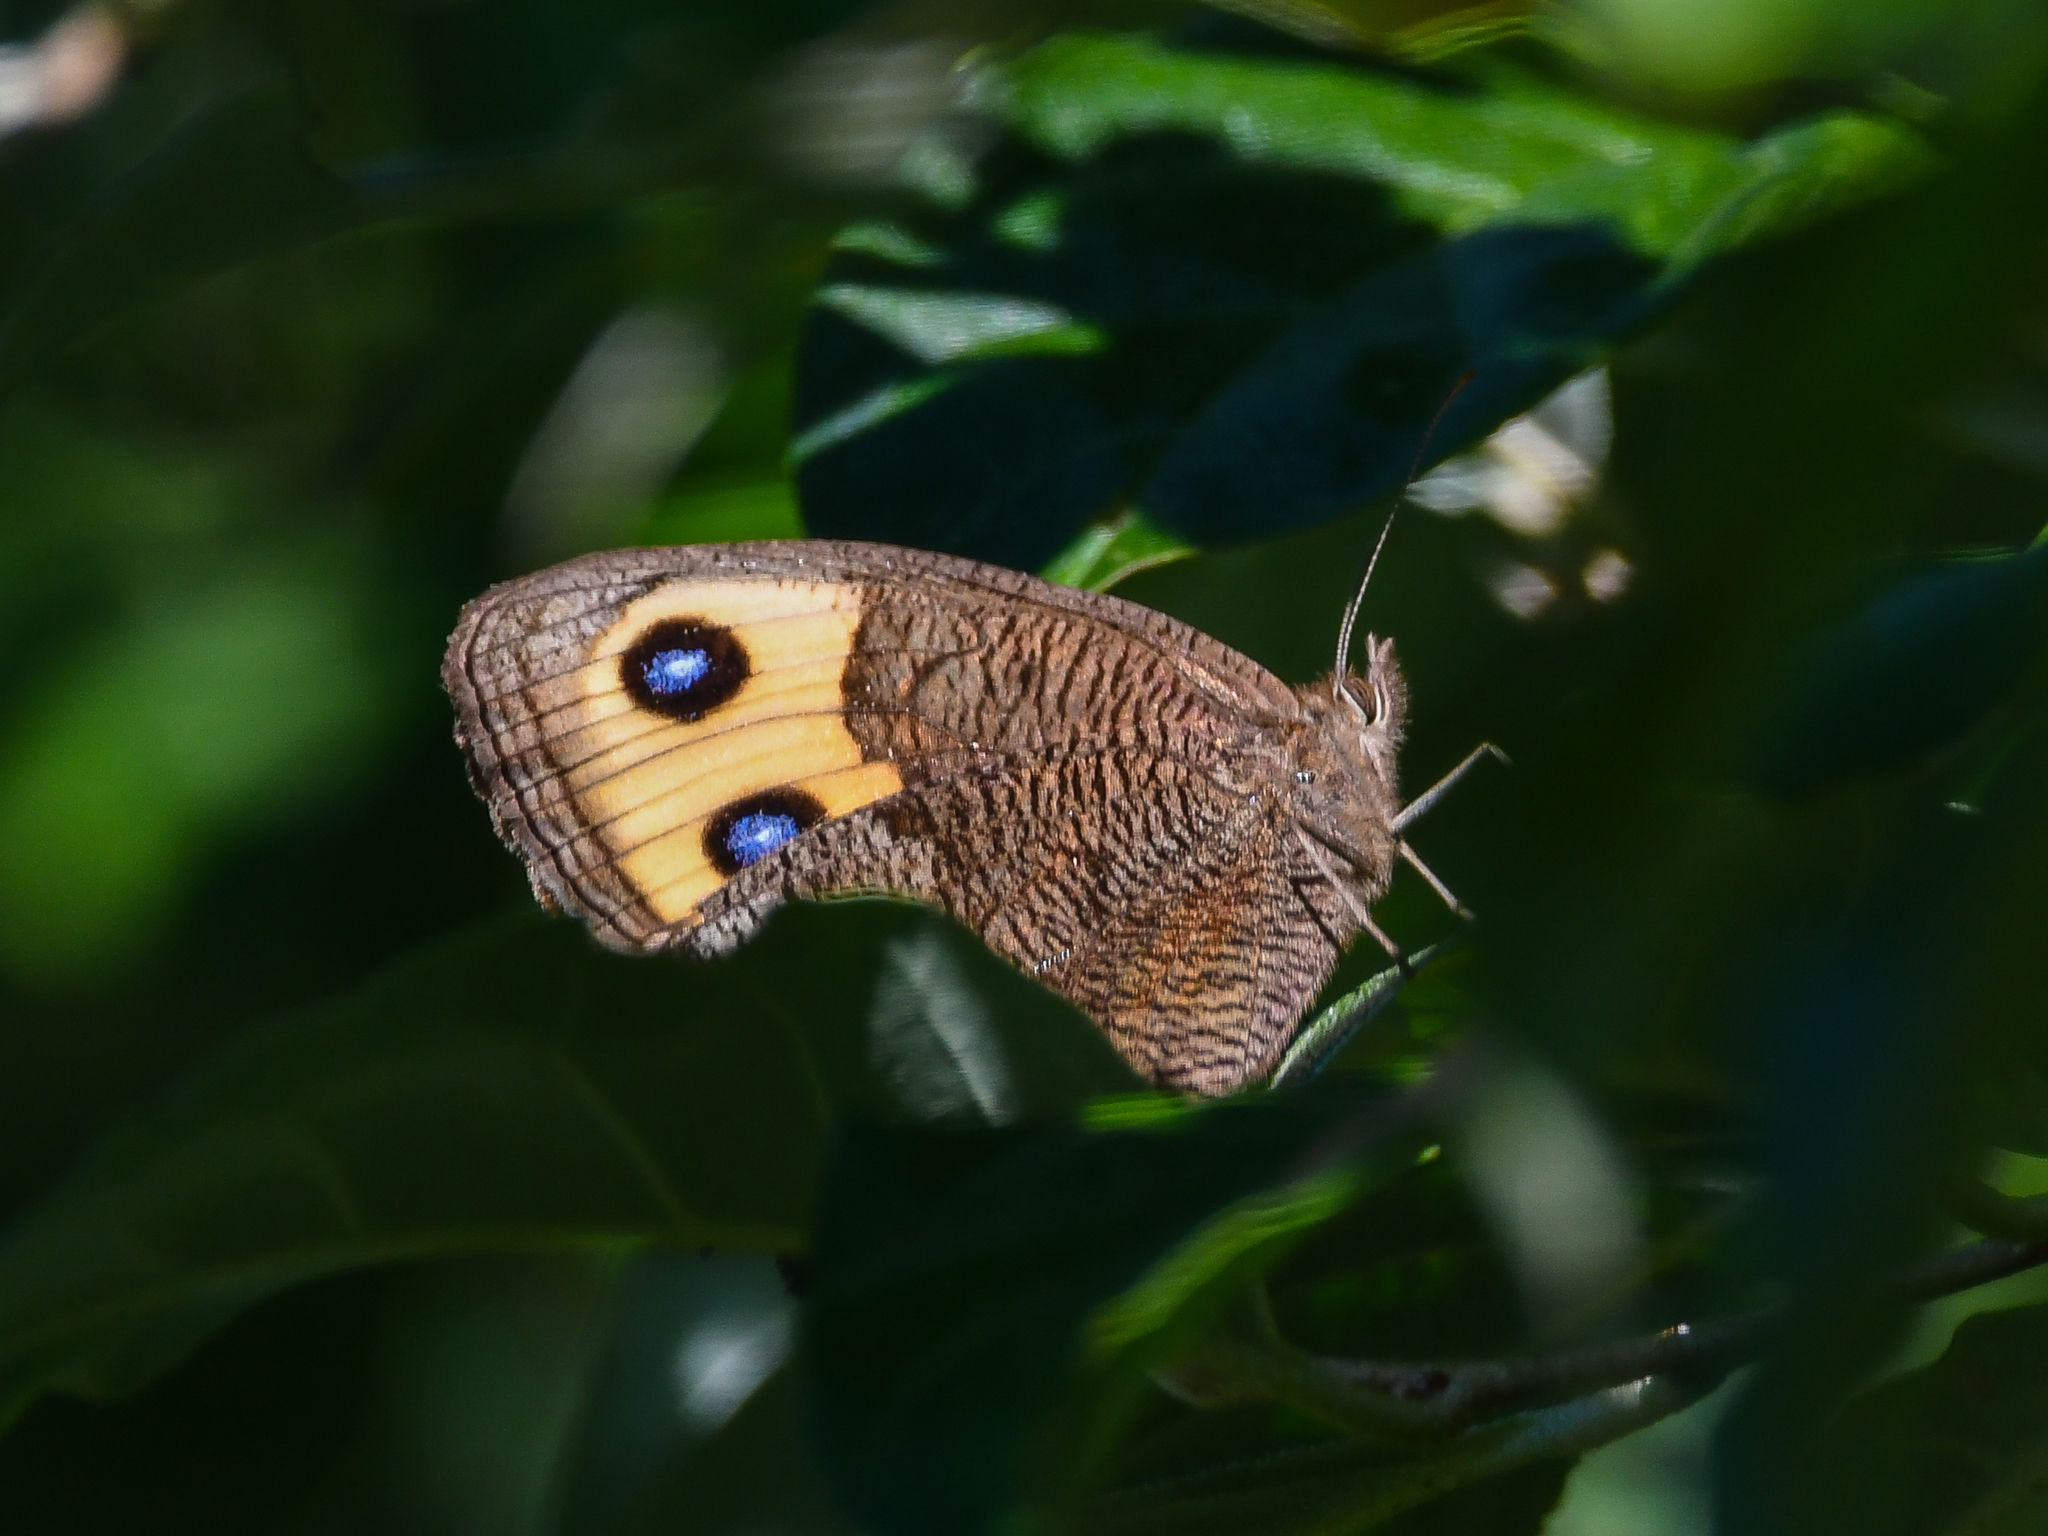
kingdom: Animalia
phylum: Arthropoda
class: Insecta
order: Lepidoptera
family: Nymphalidae
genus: Cercyonis
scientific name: Cercyonis pegala
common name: Common wood-nymph
